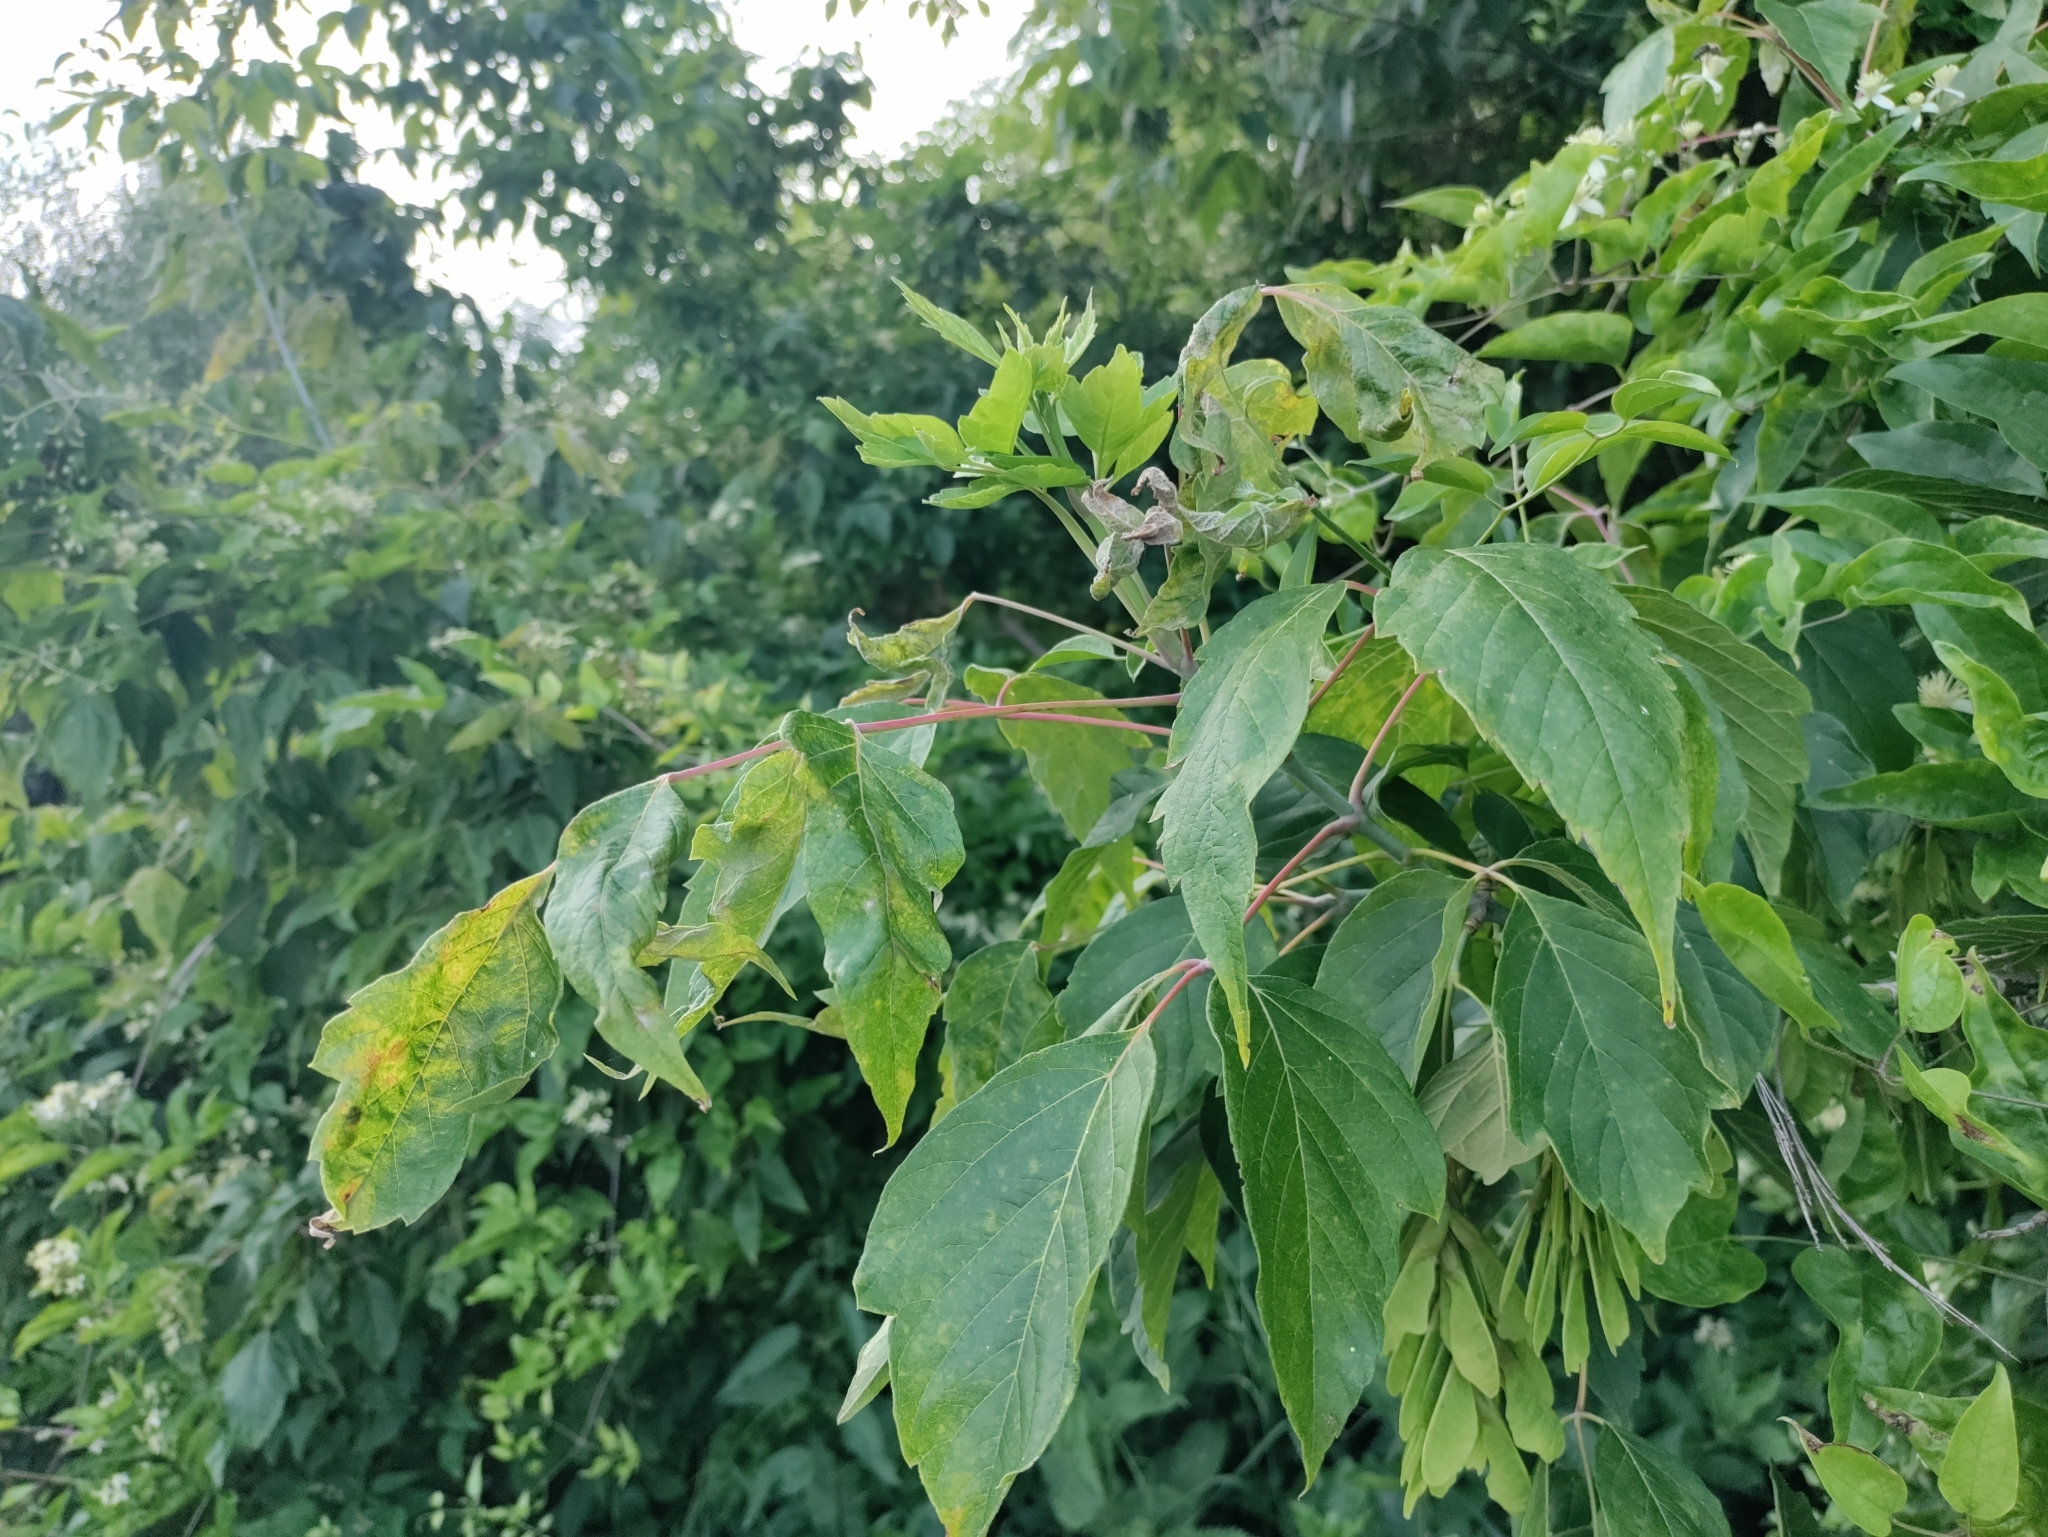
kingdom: Plantae
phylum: Tracheophyta
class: Magnoliopsida
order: Sapindales
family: Sapindaceae
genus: Acer
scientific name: Acer negundo
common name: Ashleaf maple
